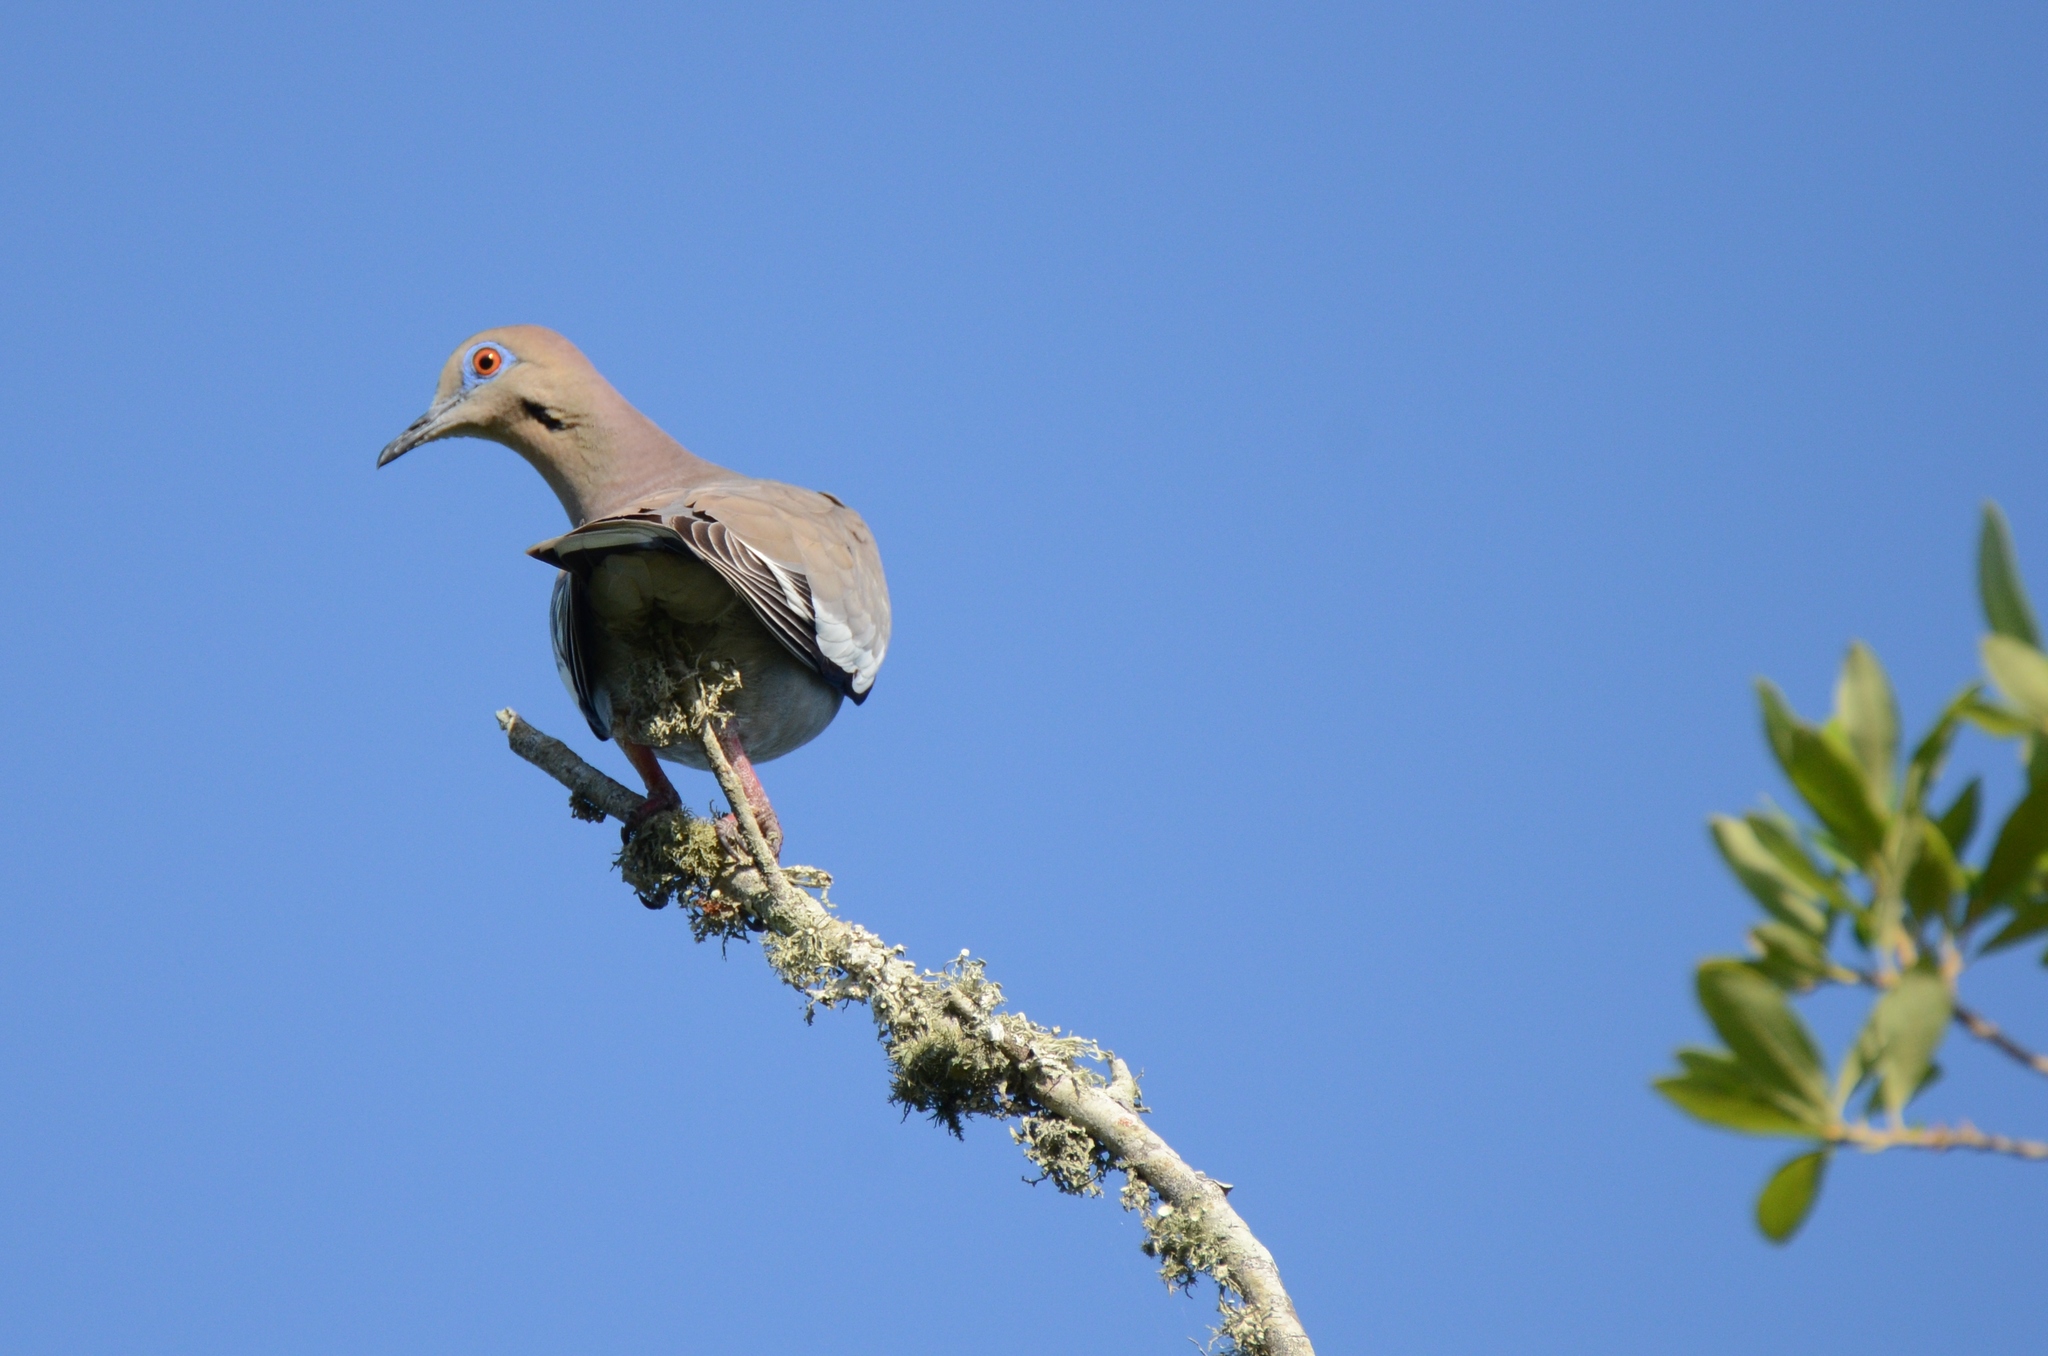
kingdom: Animalia
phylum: Chordata
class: Aves
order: Columbiformes
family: Columbidae
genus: Zenaida
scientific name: Zenaida asiatica
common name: White-winged dove
